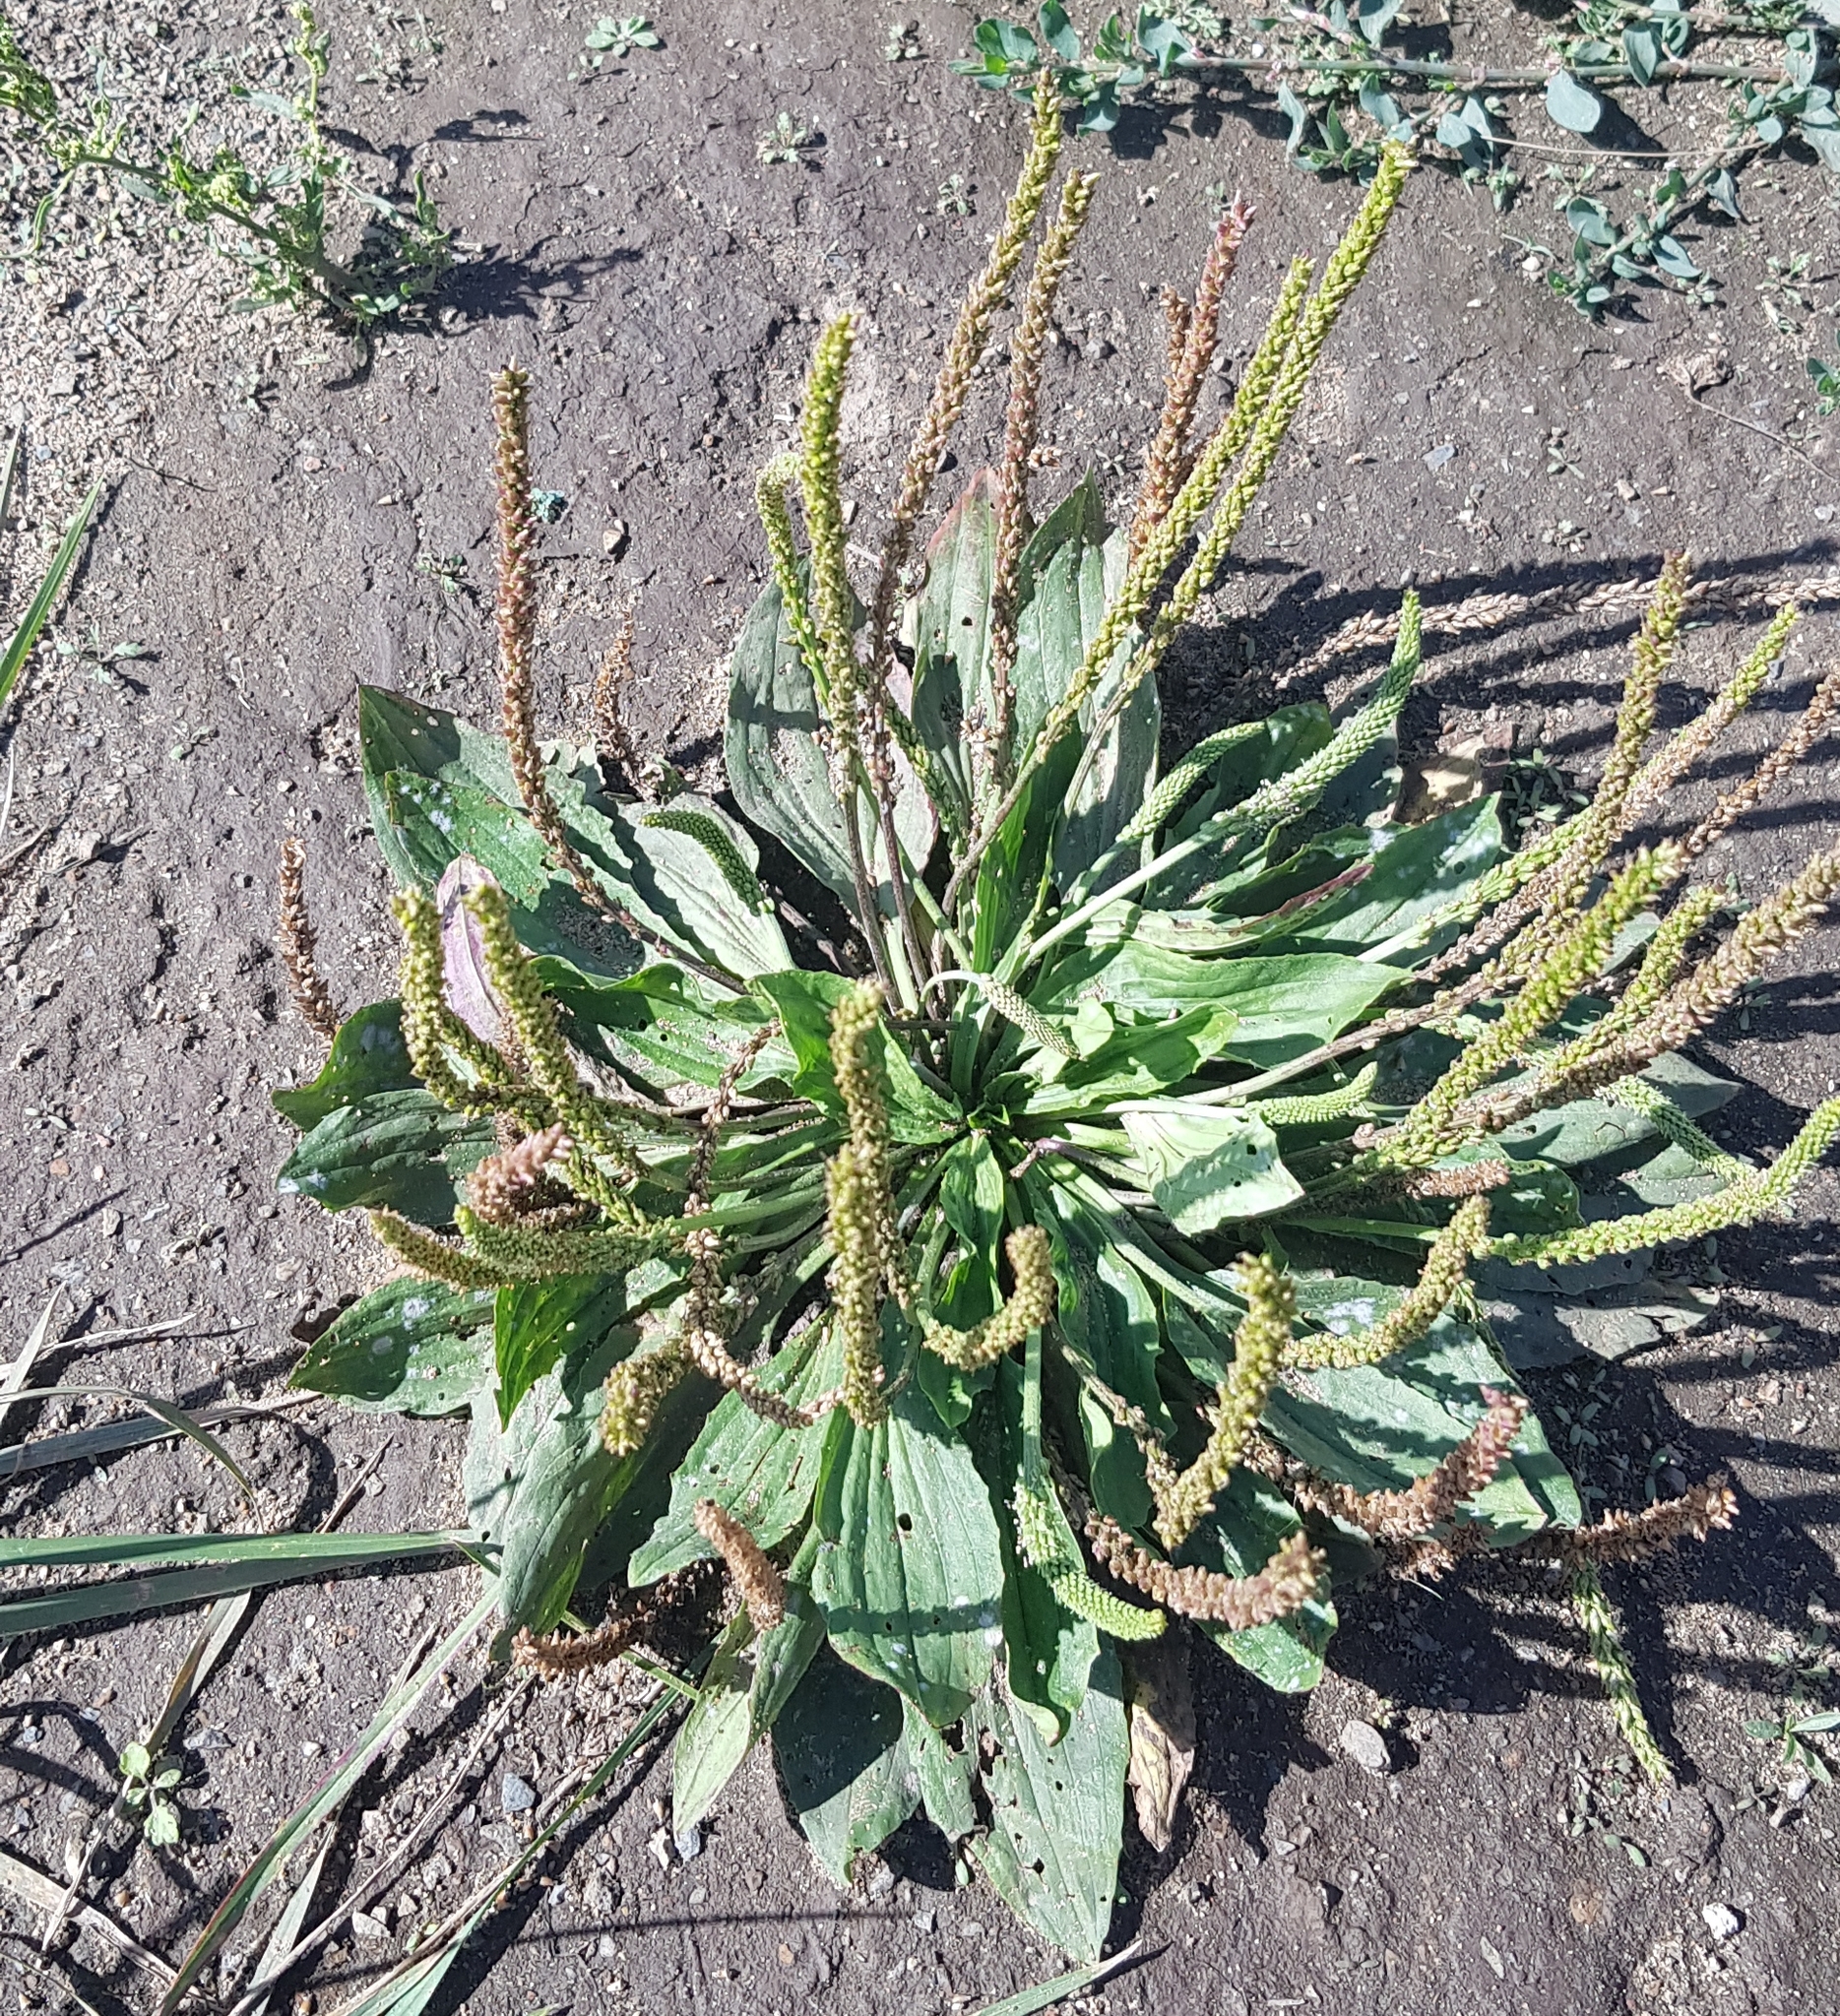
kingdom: Plantae
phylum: Tracheophyta
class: Magnoliopsida
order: Lamiales
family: Plantaginaceae
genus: Plantago
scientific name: Plantago depressa
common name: Depressed plantain
